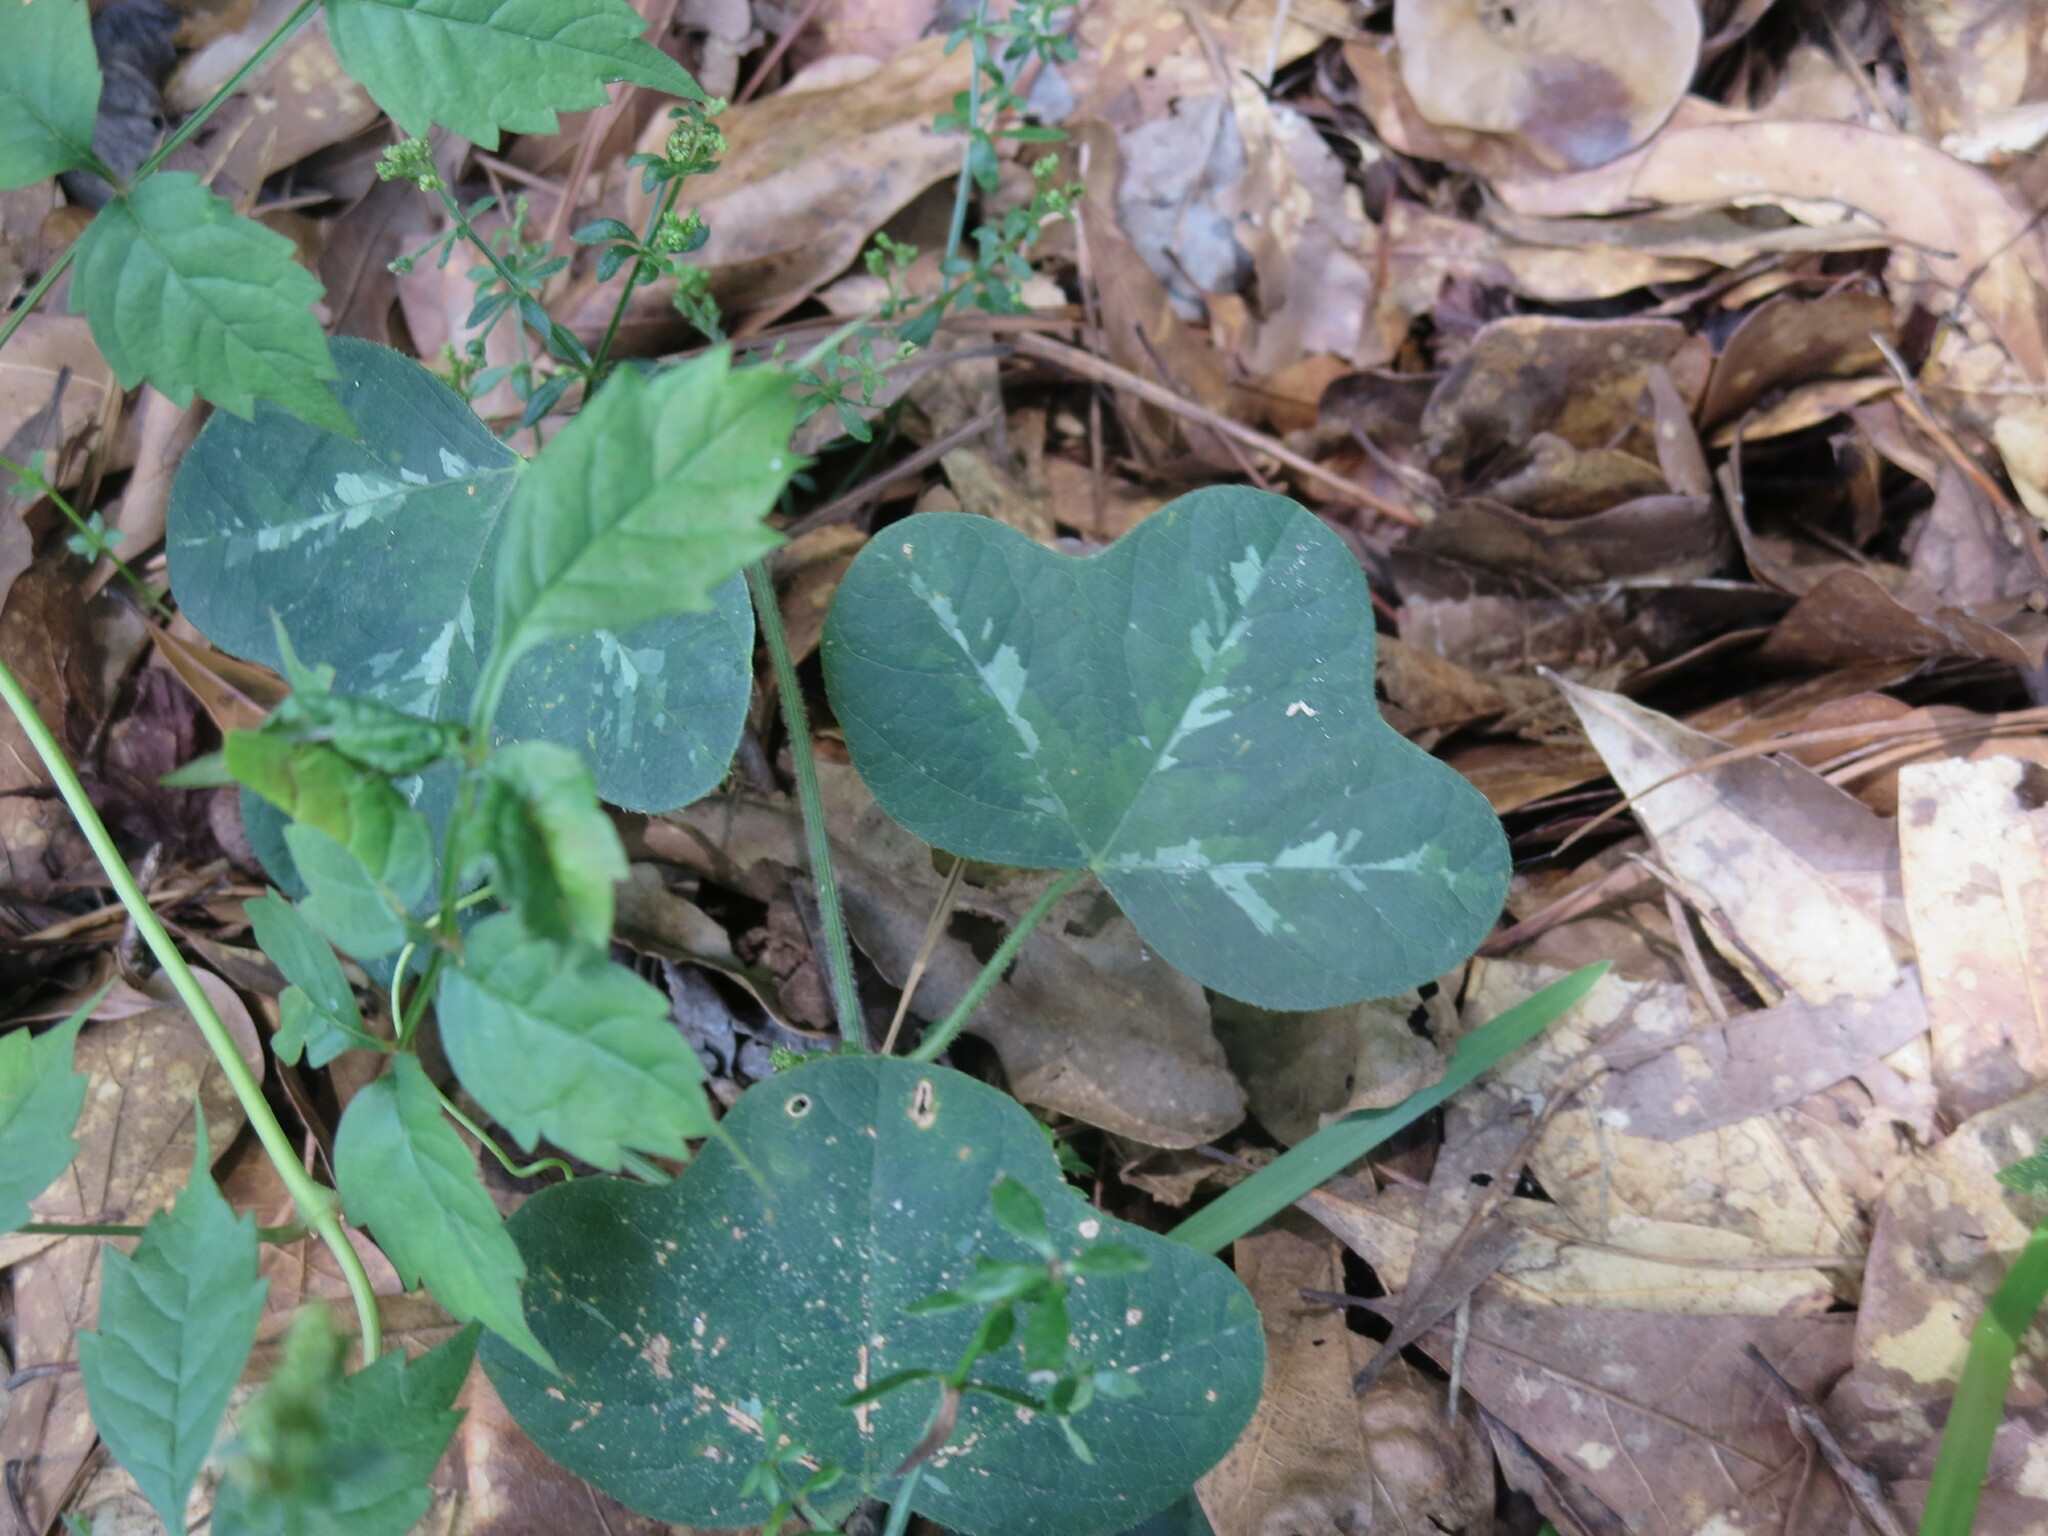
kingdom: Plantae
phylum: Tracheophyta
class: Magnoliopsida
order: Malpighiales
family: Passifloraceae
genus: Passiflora
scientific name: Passiflora lutea
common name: Yellow passionflower
